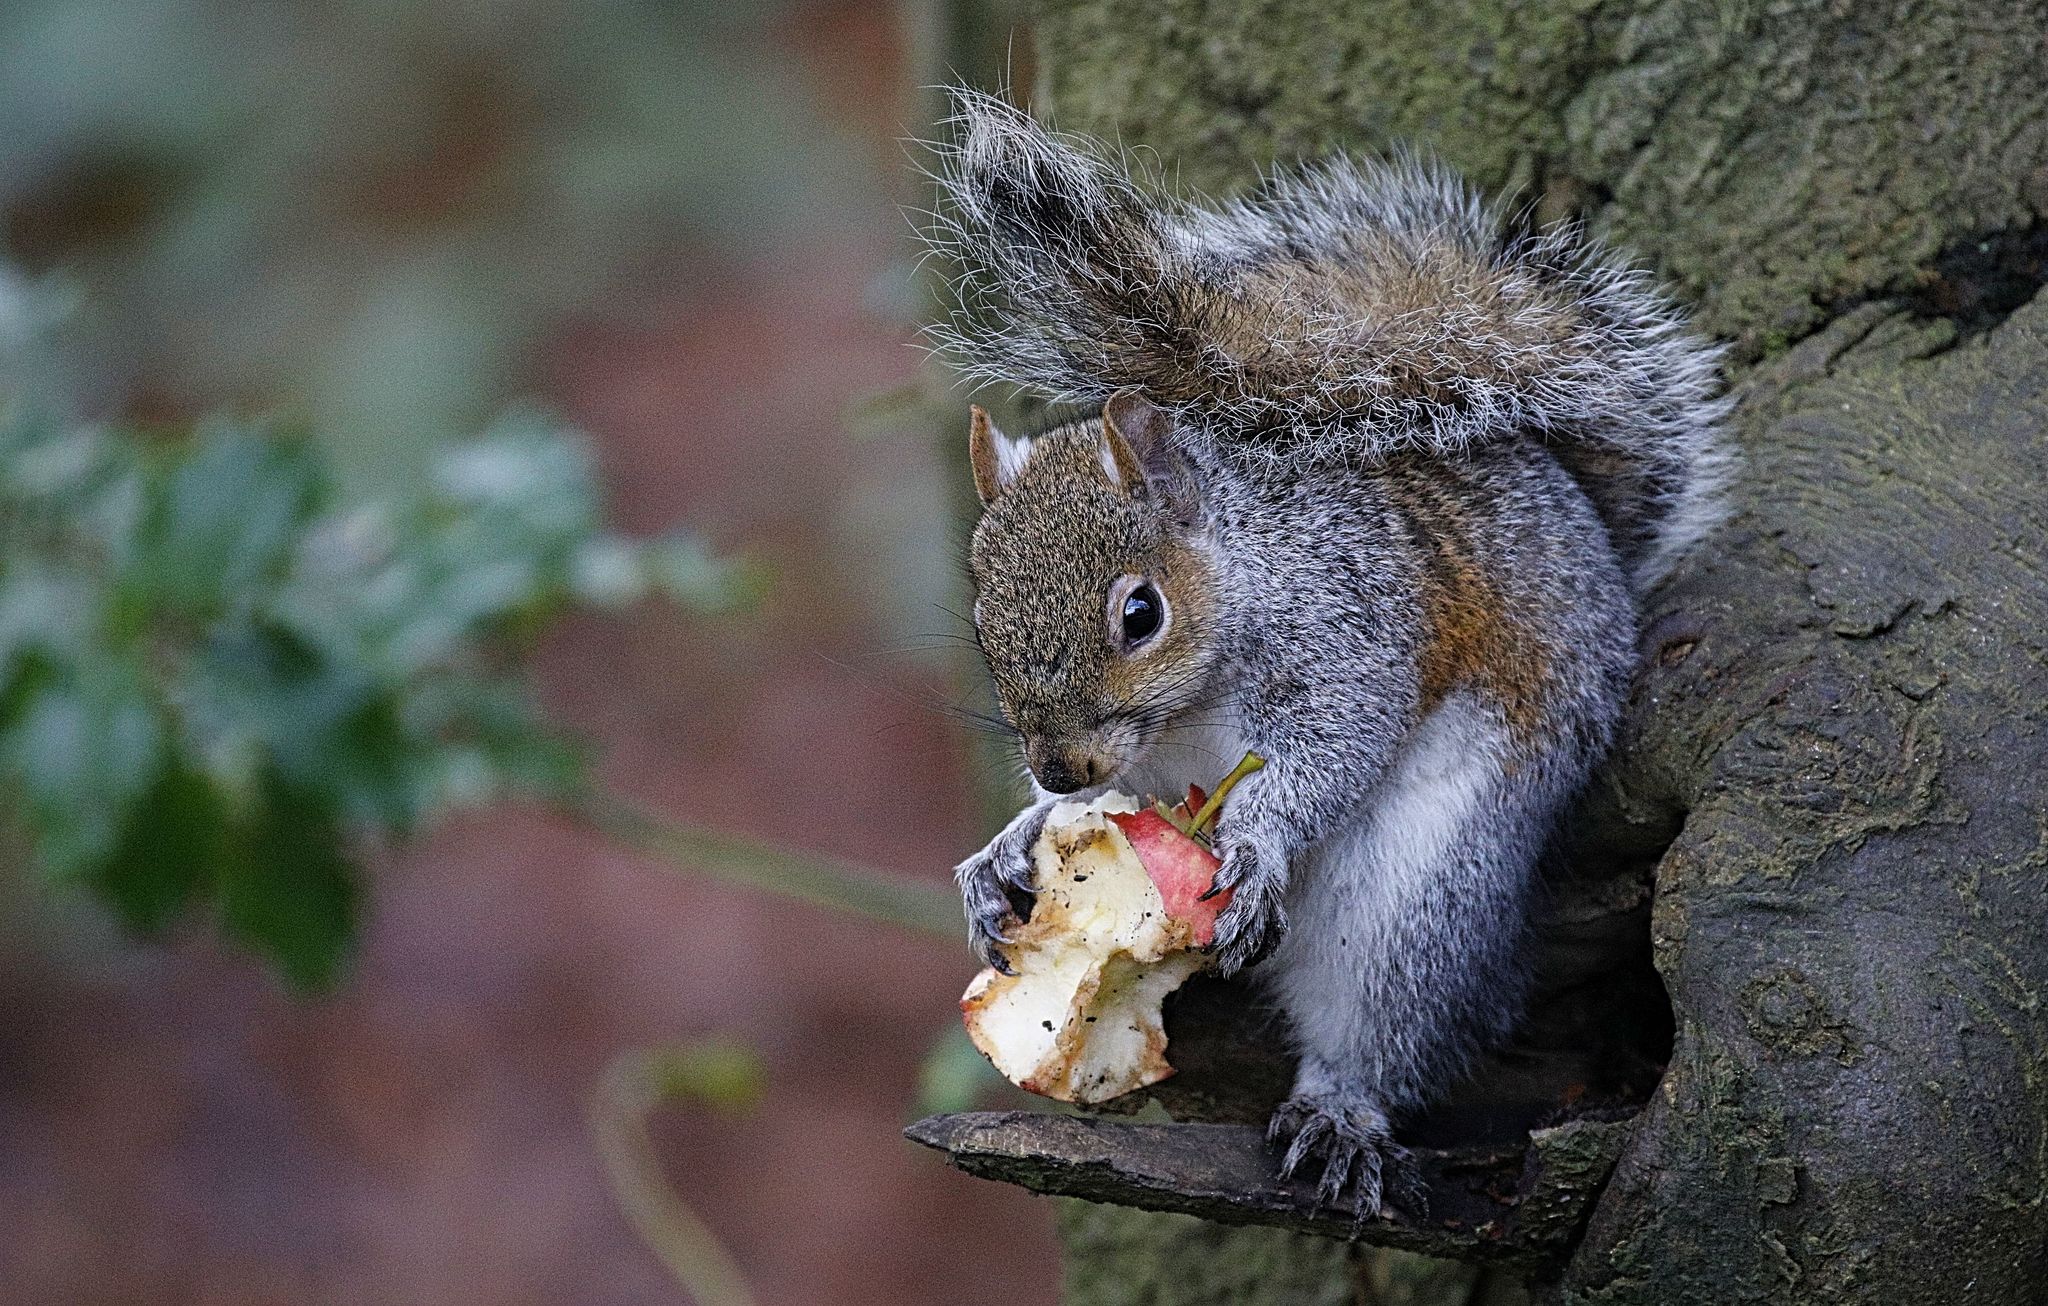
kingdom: Animalia
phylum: Chordata
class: Mammalia
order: Rodentia
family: Sciuridae
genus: Sciurus
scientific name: Sciurus carolinensis
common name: Eastern gray squirrel
